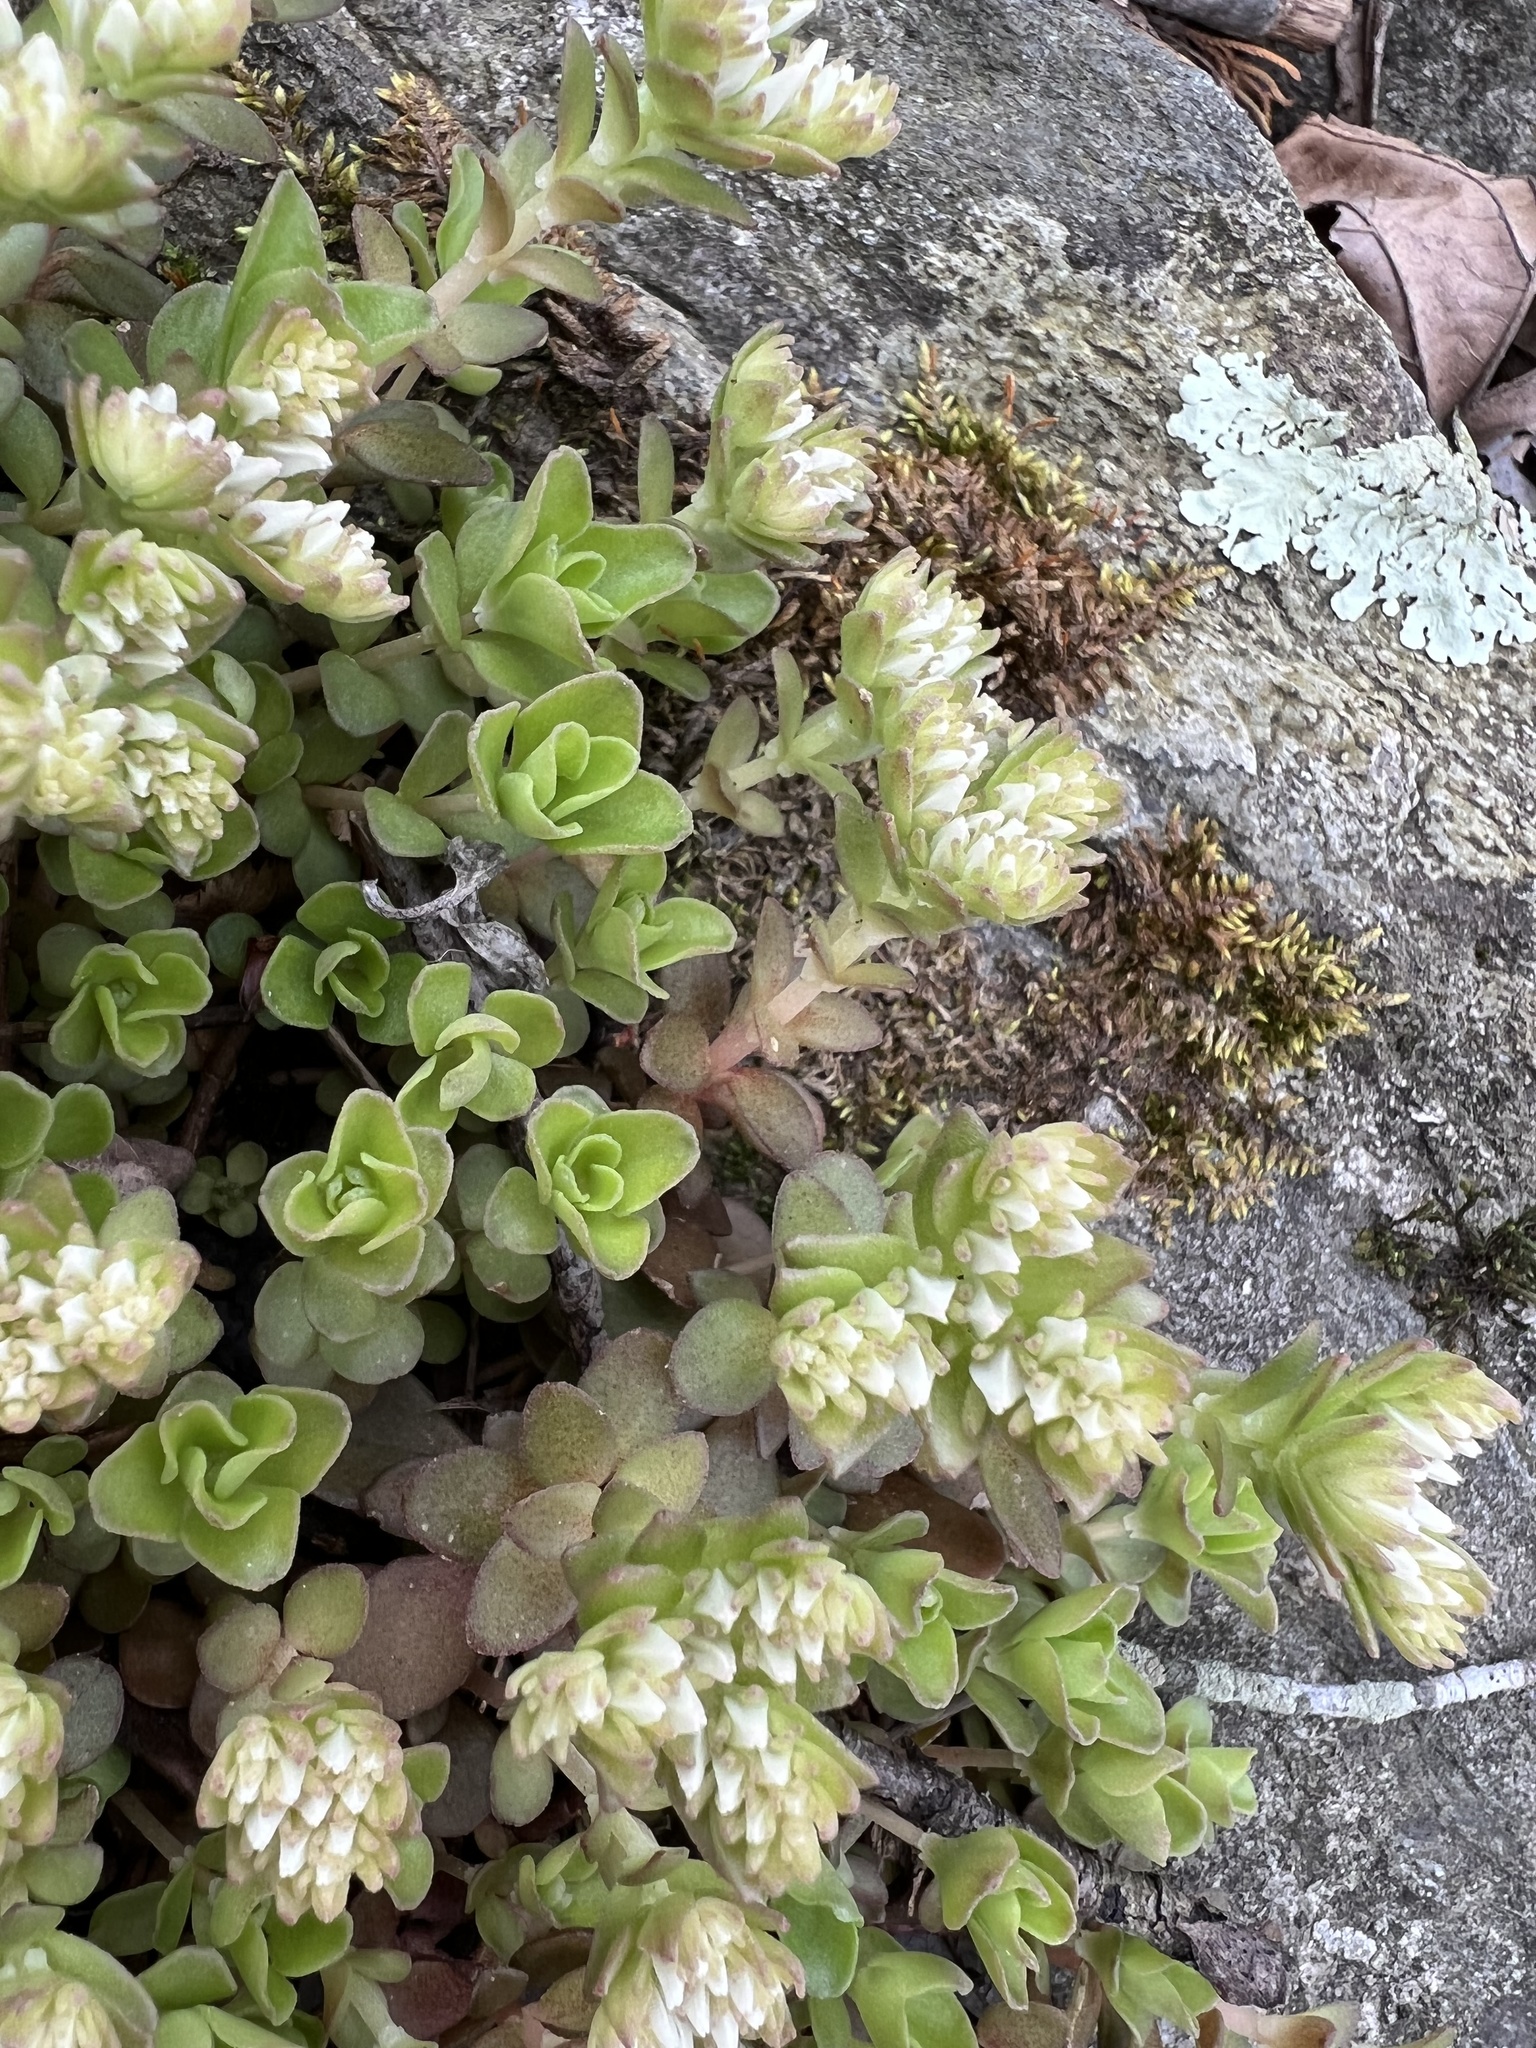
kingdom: Plantae
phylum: Tracheophyta
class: Magnoliopsida
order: Saxifragales
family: Crassulaceae
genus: Sedum
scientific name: Sedum ternatum
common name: Wild stonecrop
